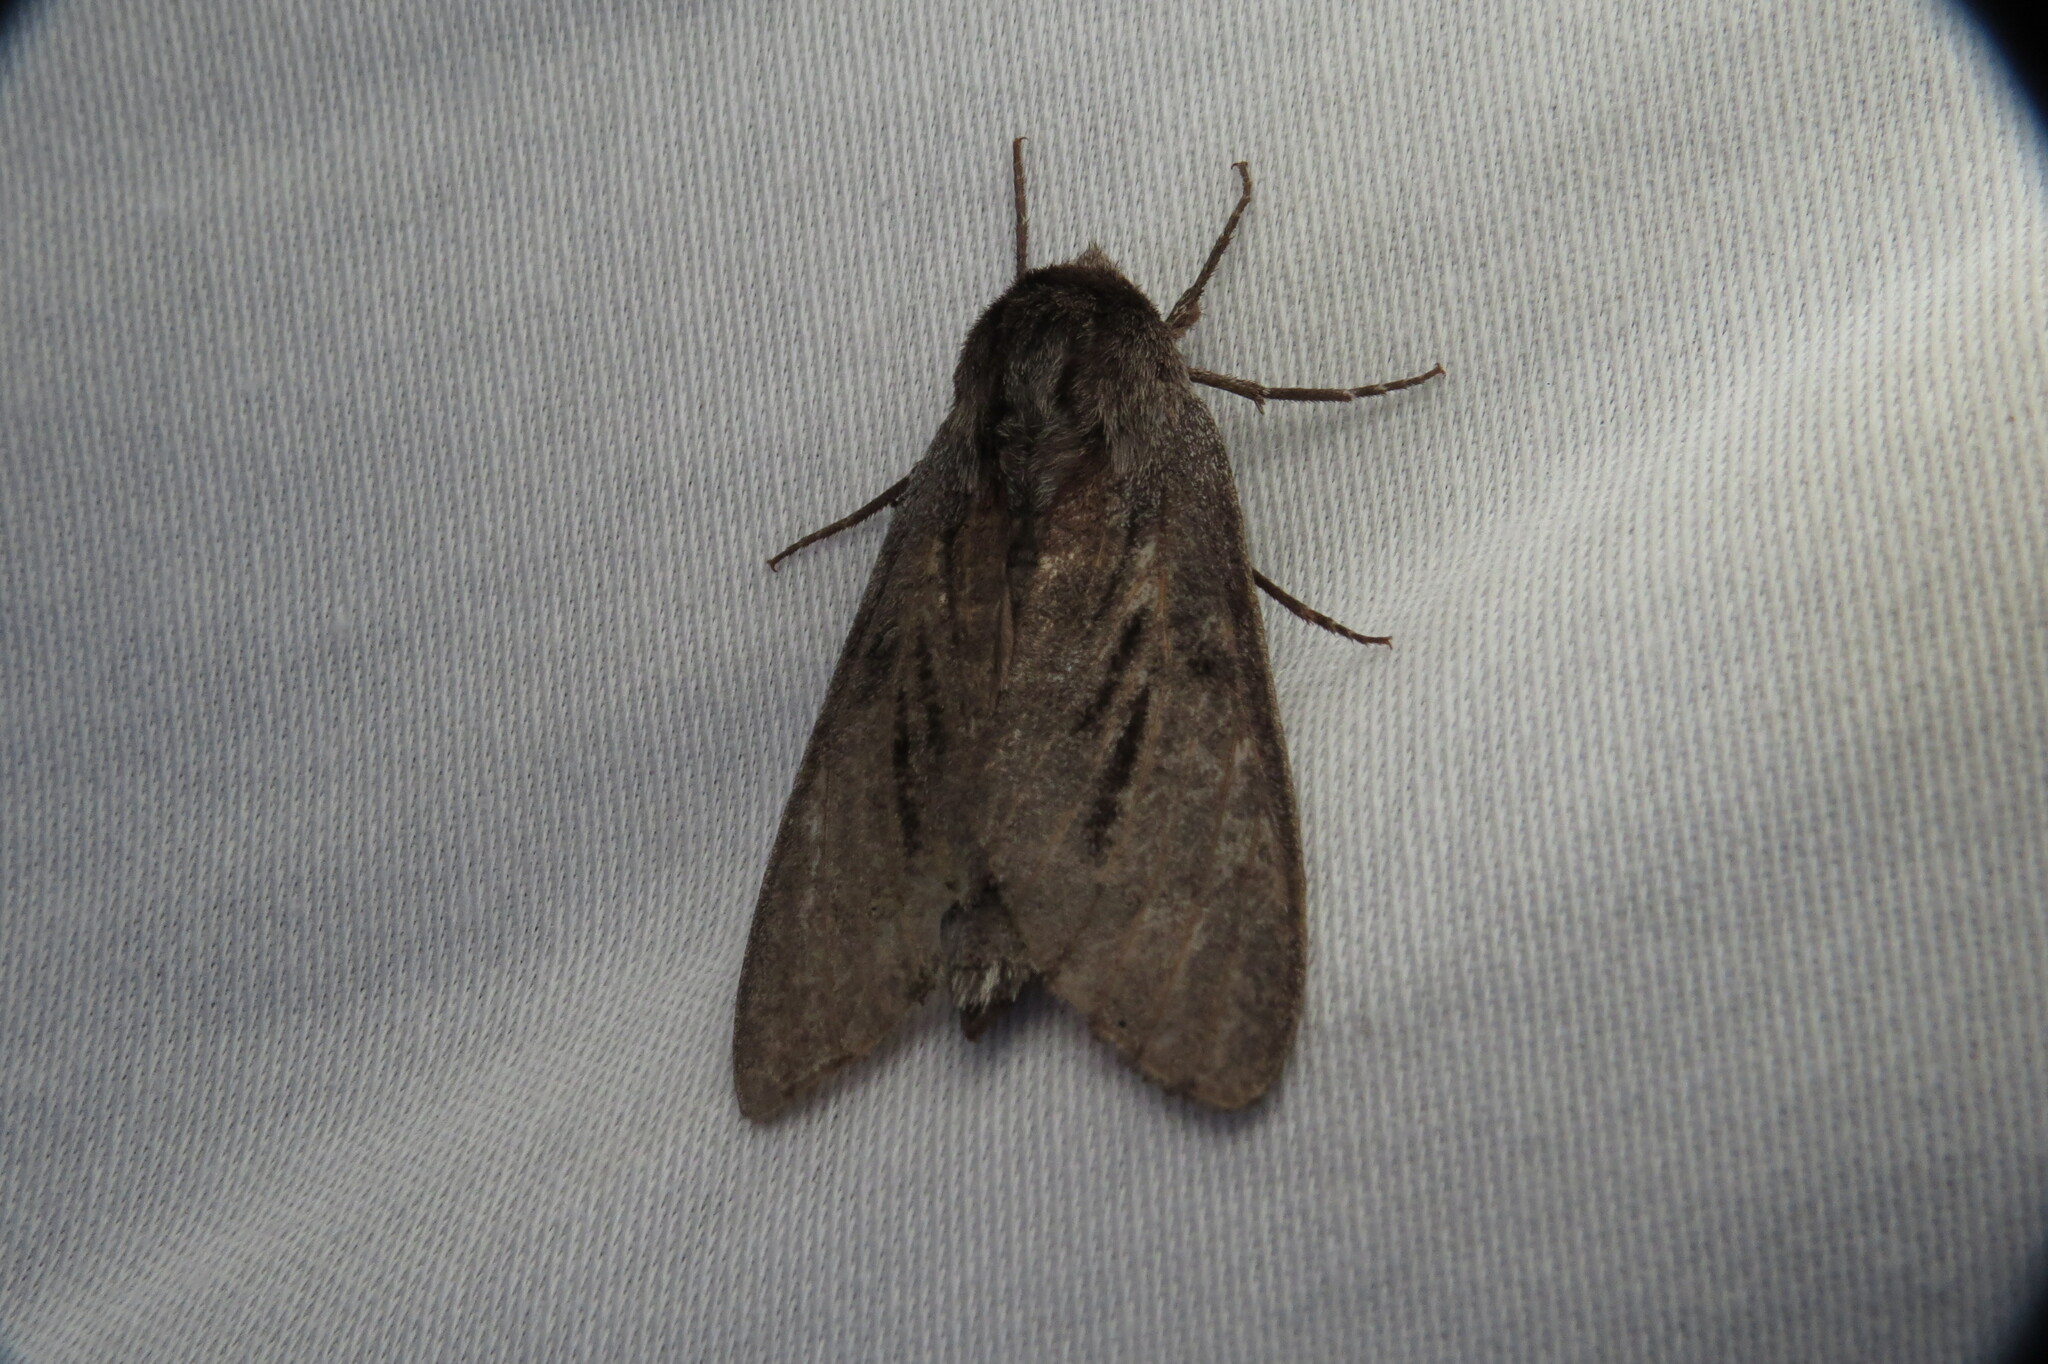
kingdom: Animalia
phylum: Arthropoda
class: Insecta
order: Lepidoptera
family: Sphingidae
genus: Lapara
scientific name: Lapara coniferarum
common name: Southern pine sphinx
